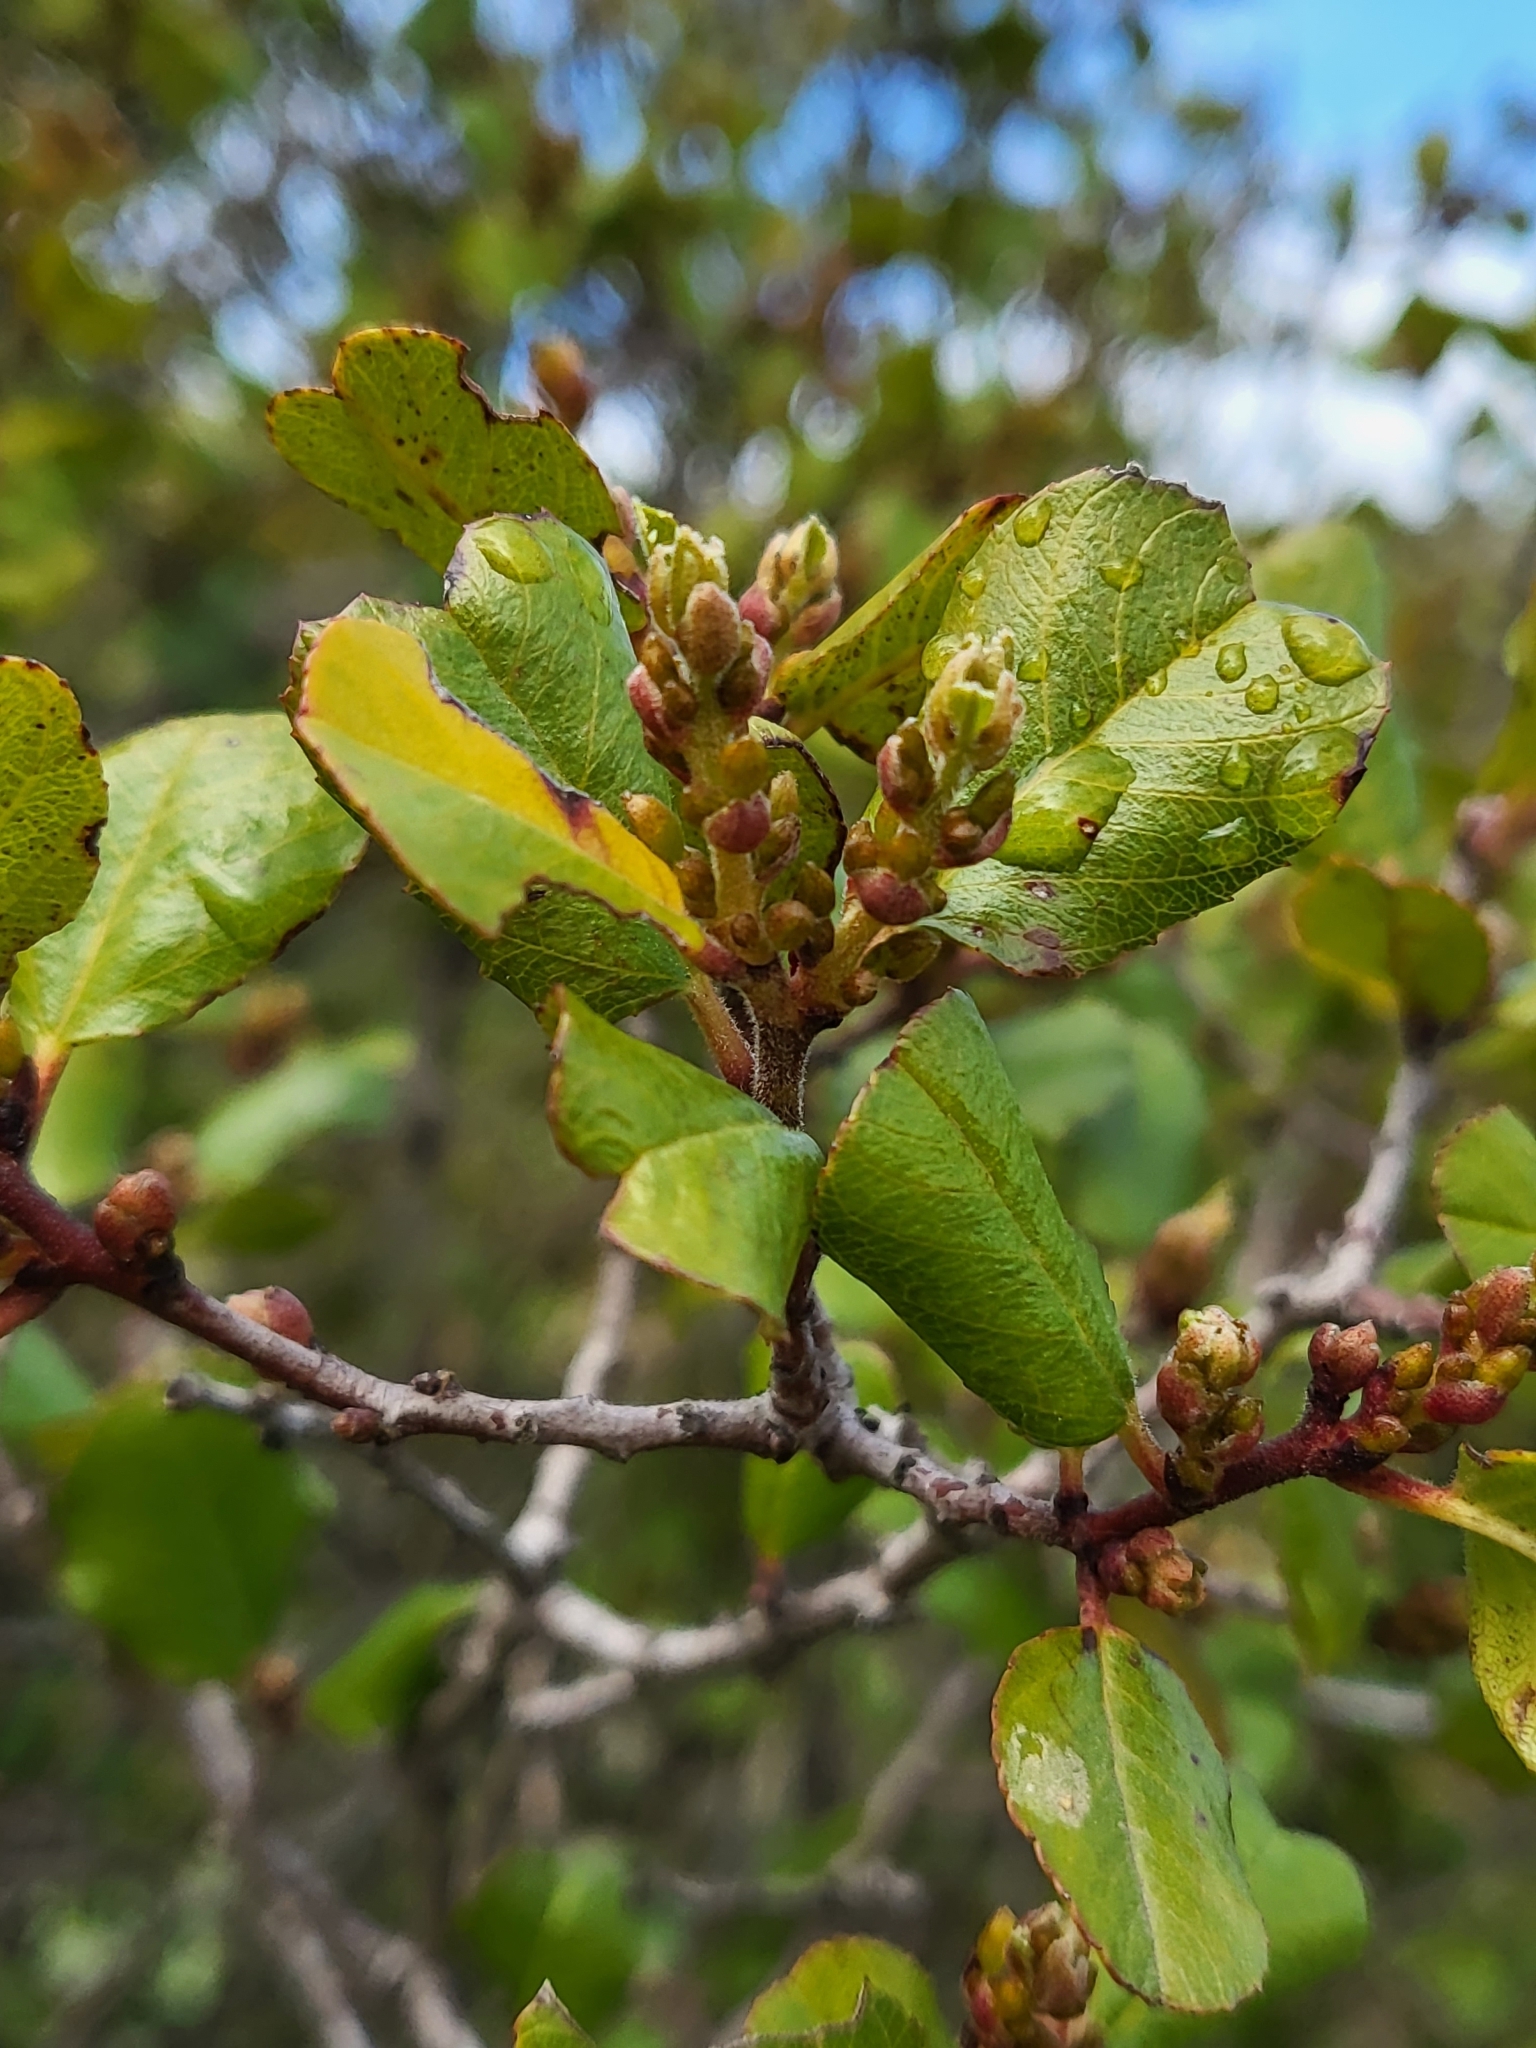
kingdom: Plantae
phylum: Tracheophyta
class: Magnoliopsida
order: Rosales
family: Rhamnaceae
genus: Endotropis
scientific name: Endotropis crocea
